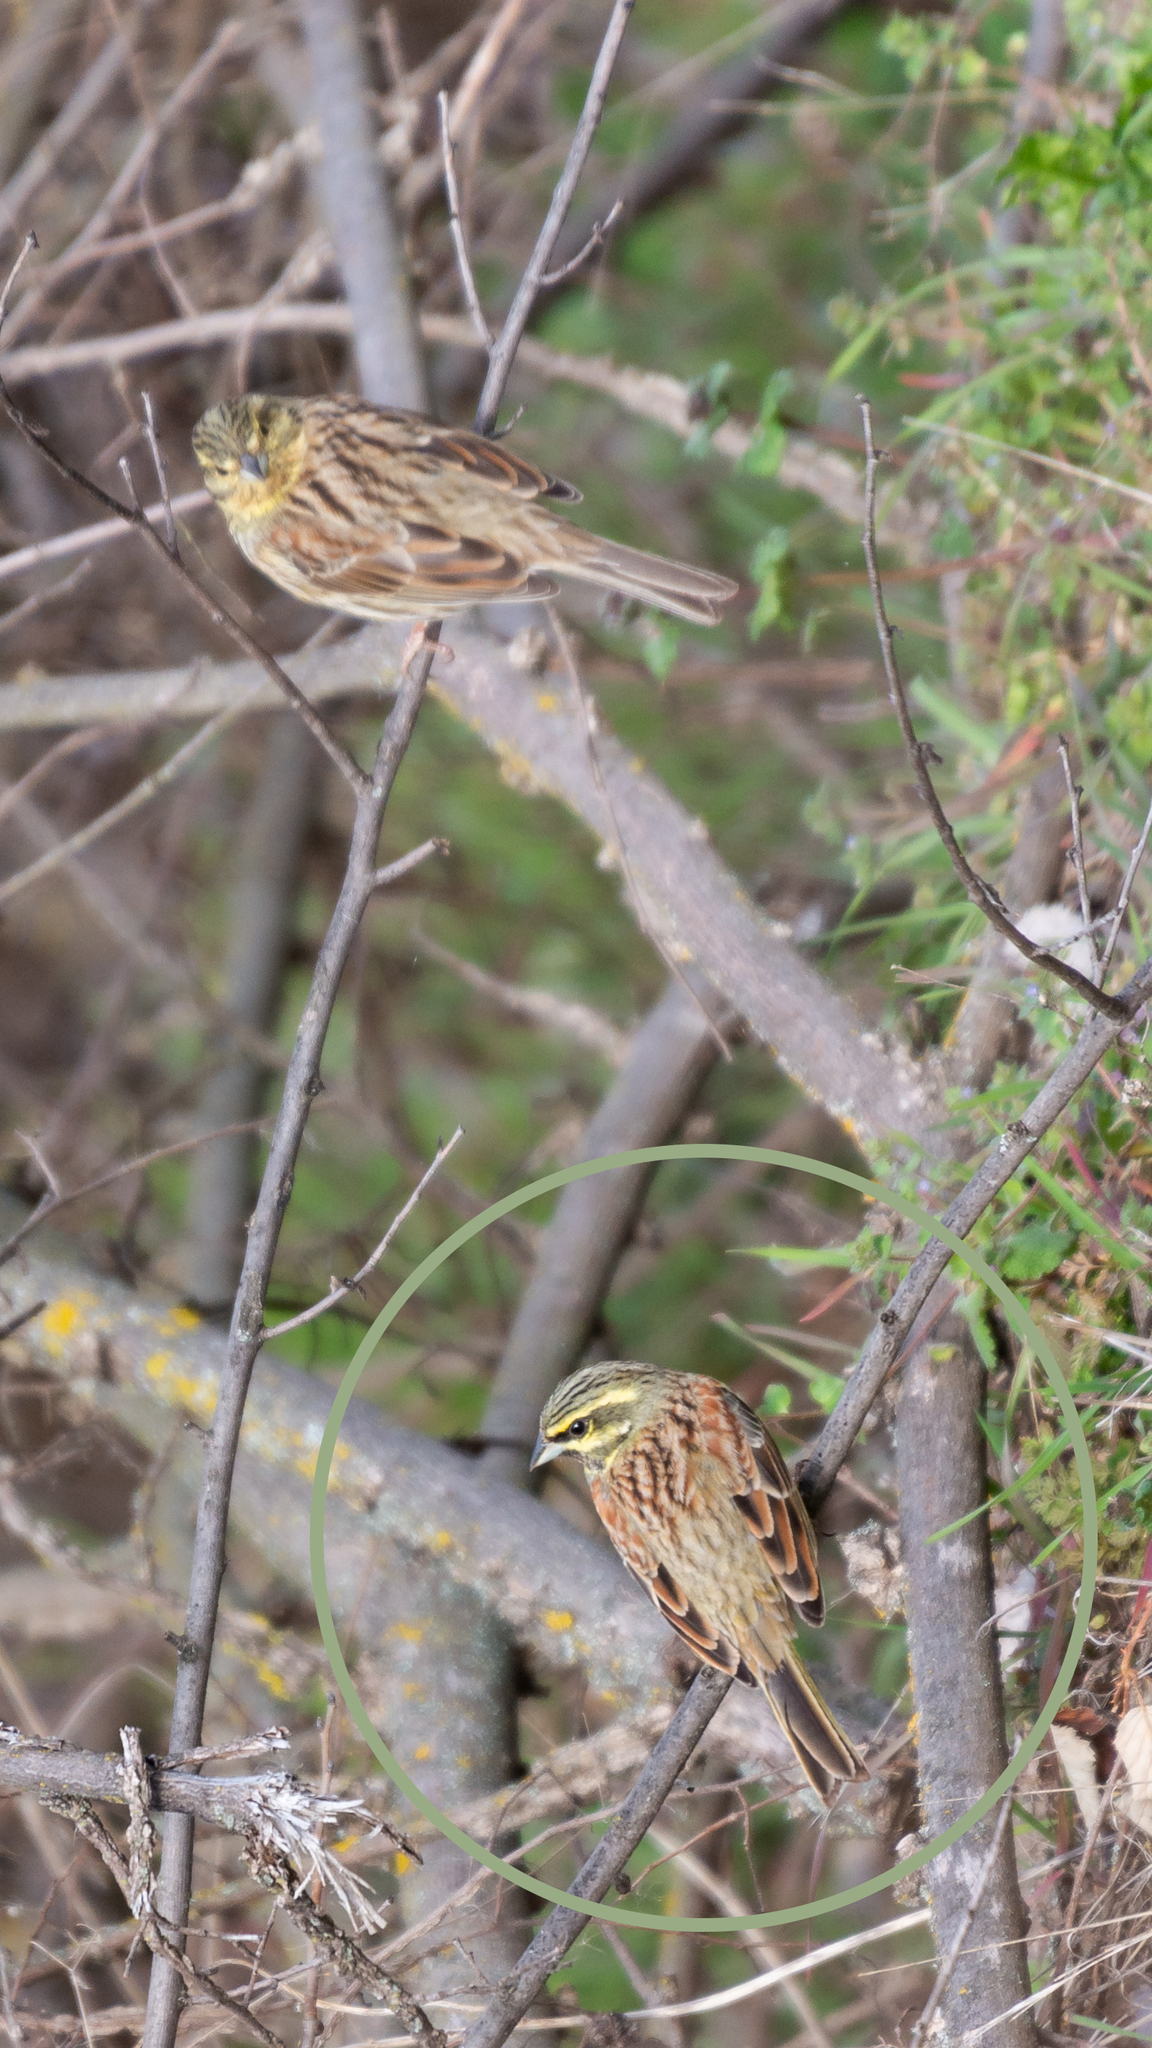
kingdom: Animalia
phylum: Chordata
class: Aves
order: Passeriformes
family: Emberizidae
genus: Emberiza
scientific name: Emberiza cirlus
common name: Cirl bunting
